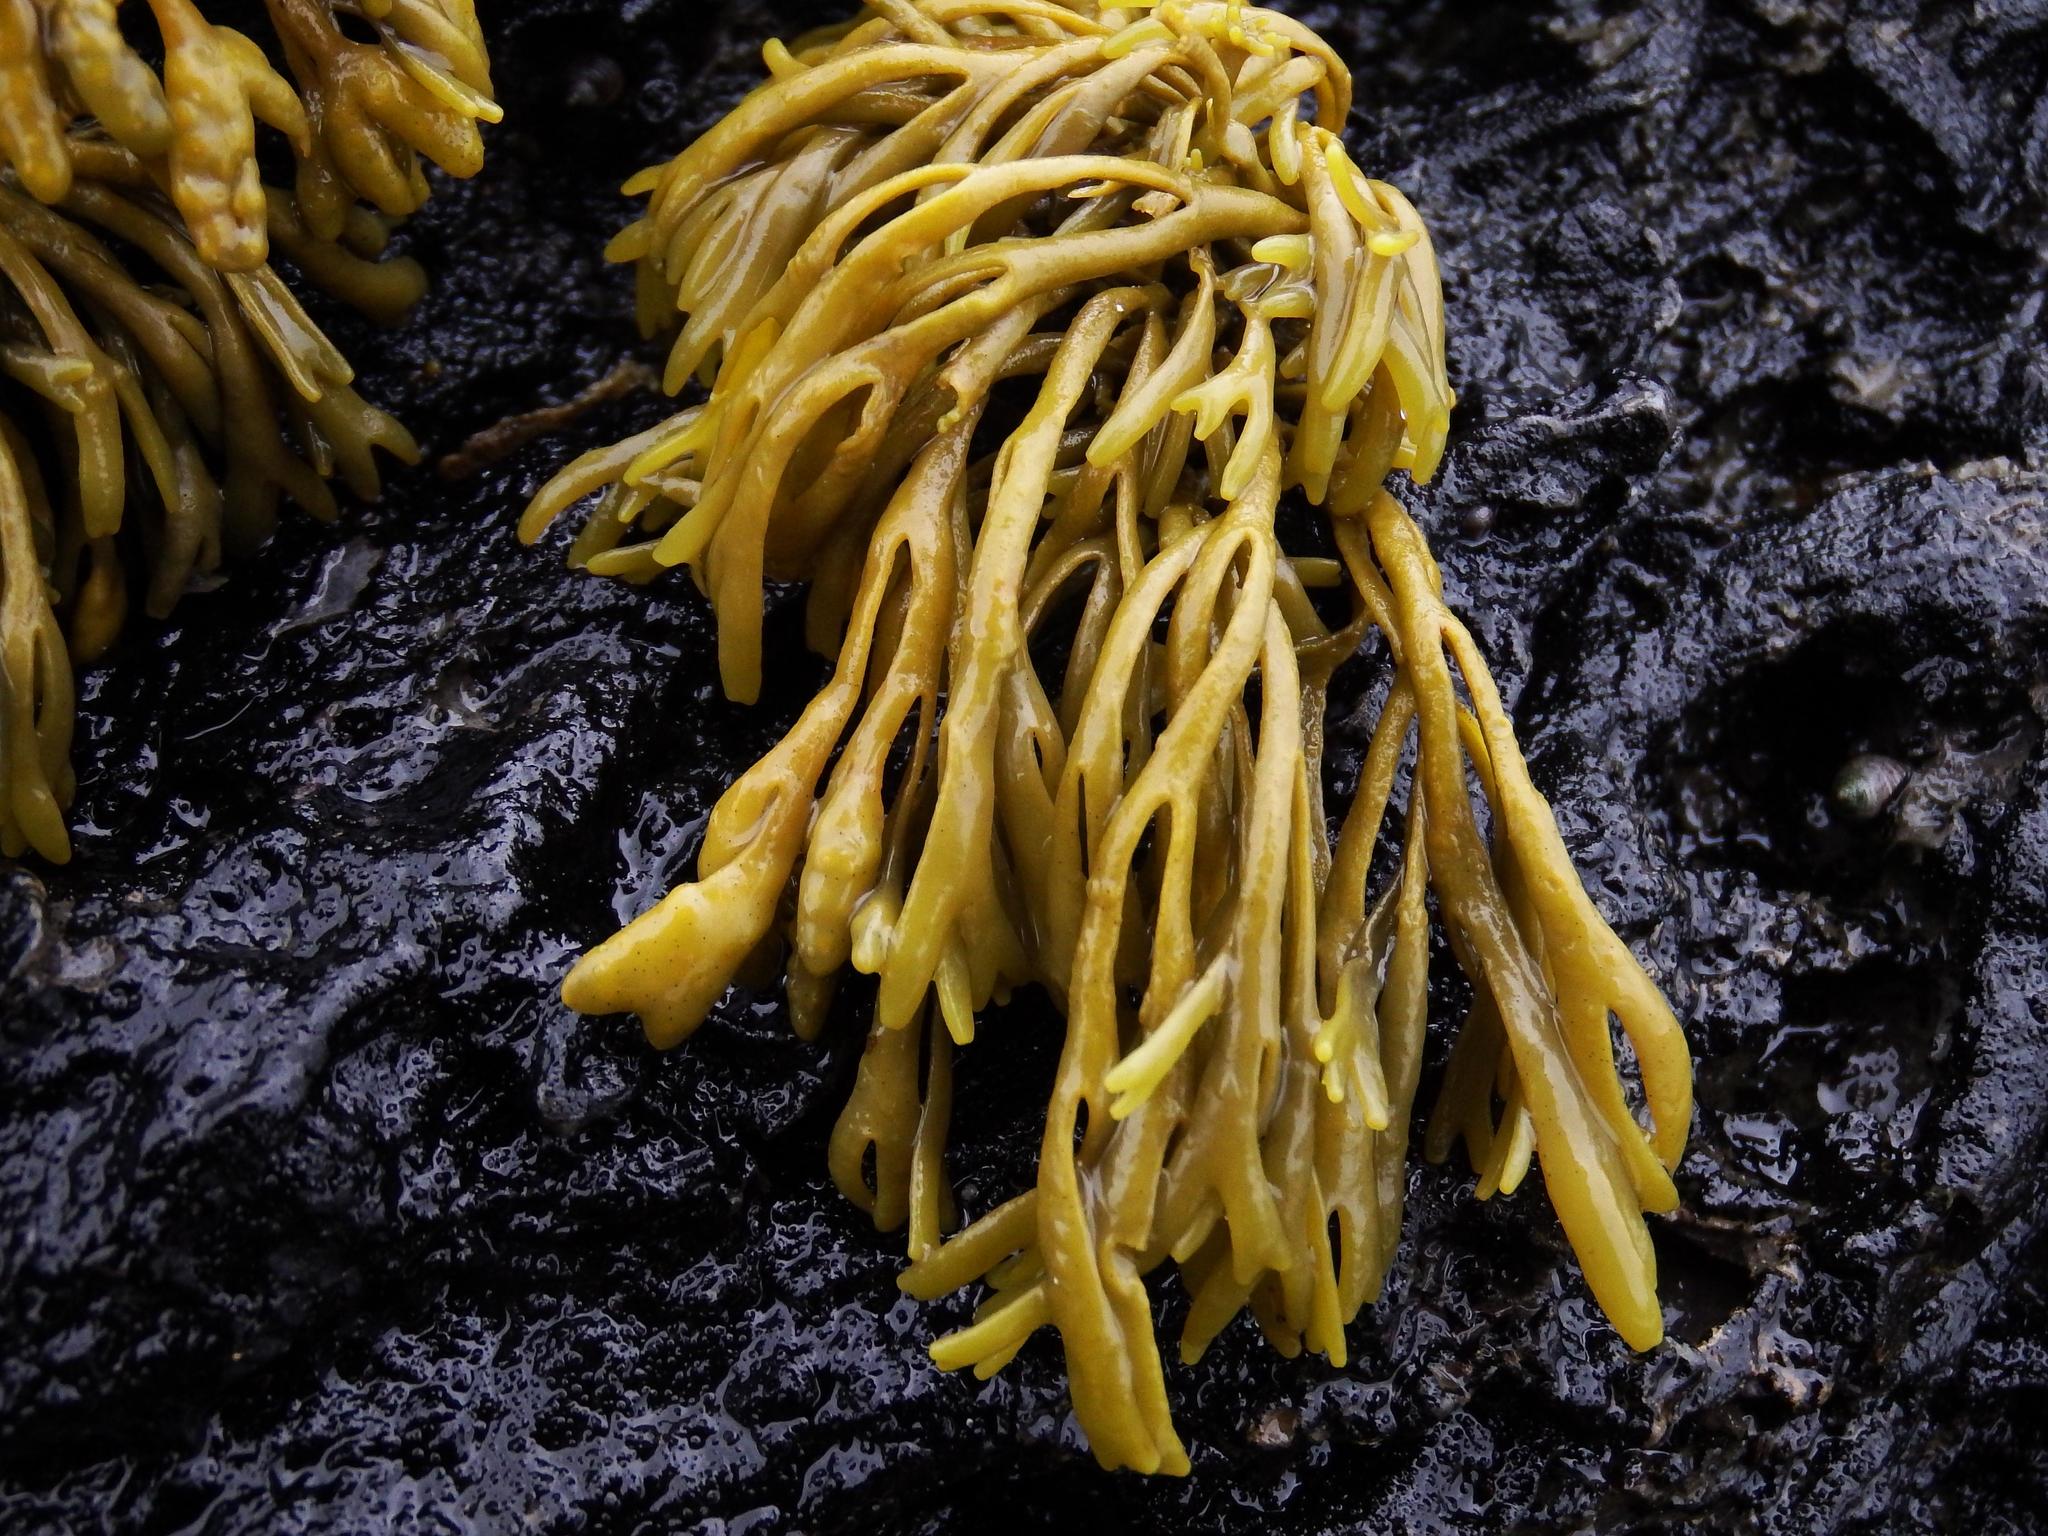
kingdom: Chromista
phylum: Ochrophyta
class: Phaeophyceae
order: Fucales
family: Fucaceae
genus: Pelvetia
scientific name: Pelvetia canaliculata
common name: Channelled wrack
